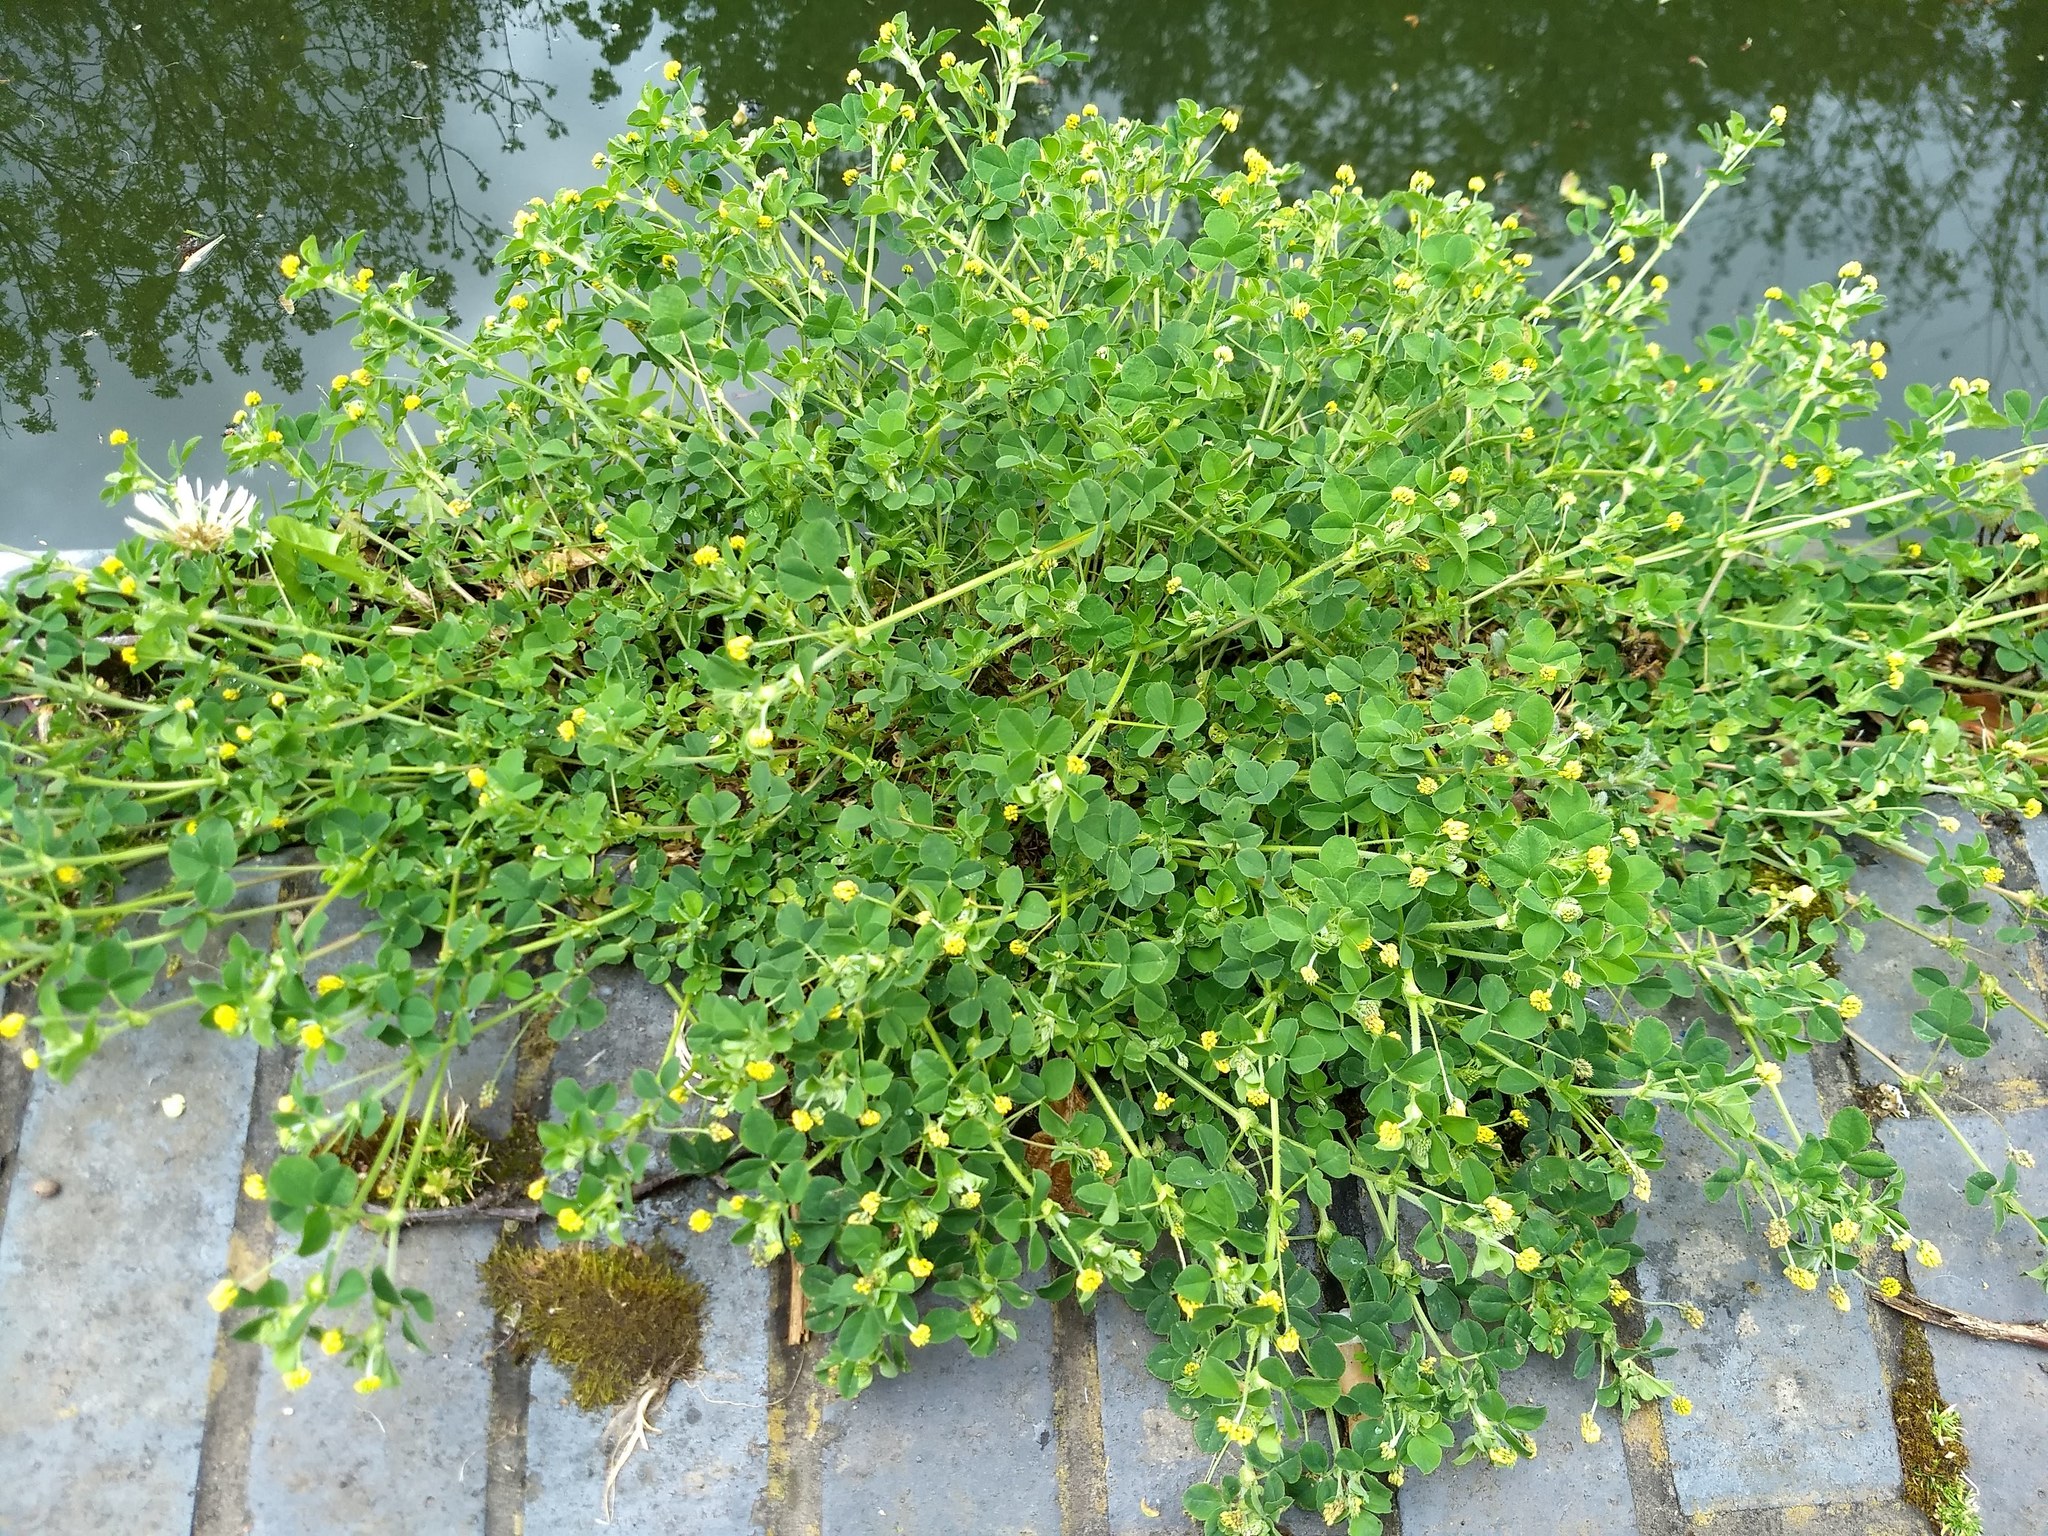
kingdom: Plantae
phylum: Tracheophyta
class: Magnoliopsida
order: Fabales
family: Fabaceae
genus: Medicago
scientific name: Medicago lupulina
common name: Black medick
